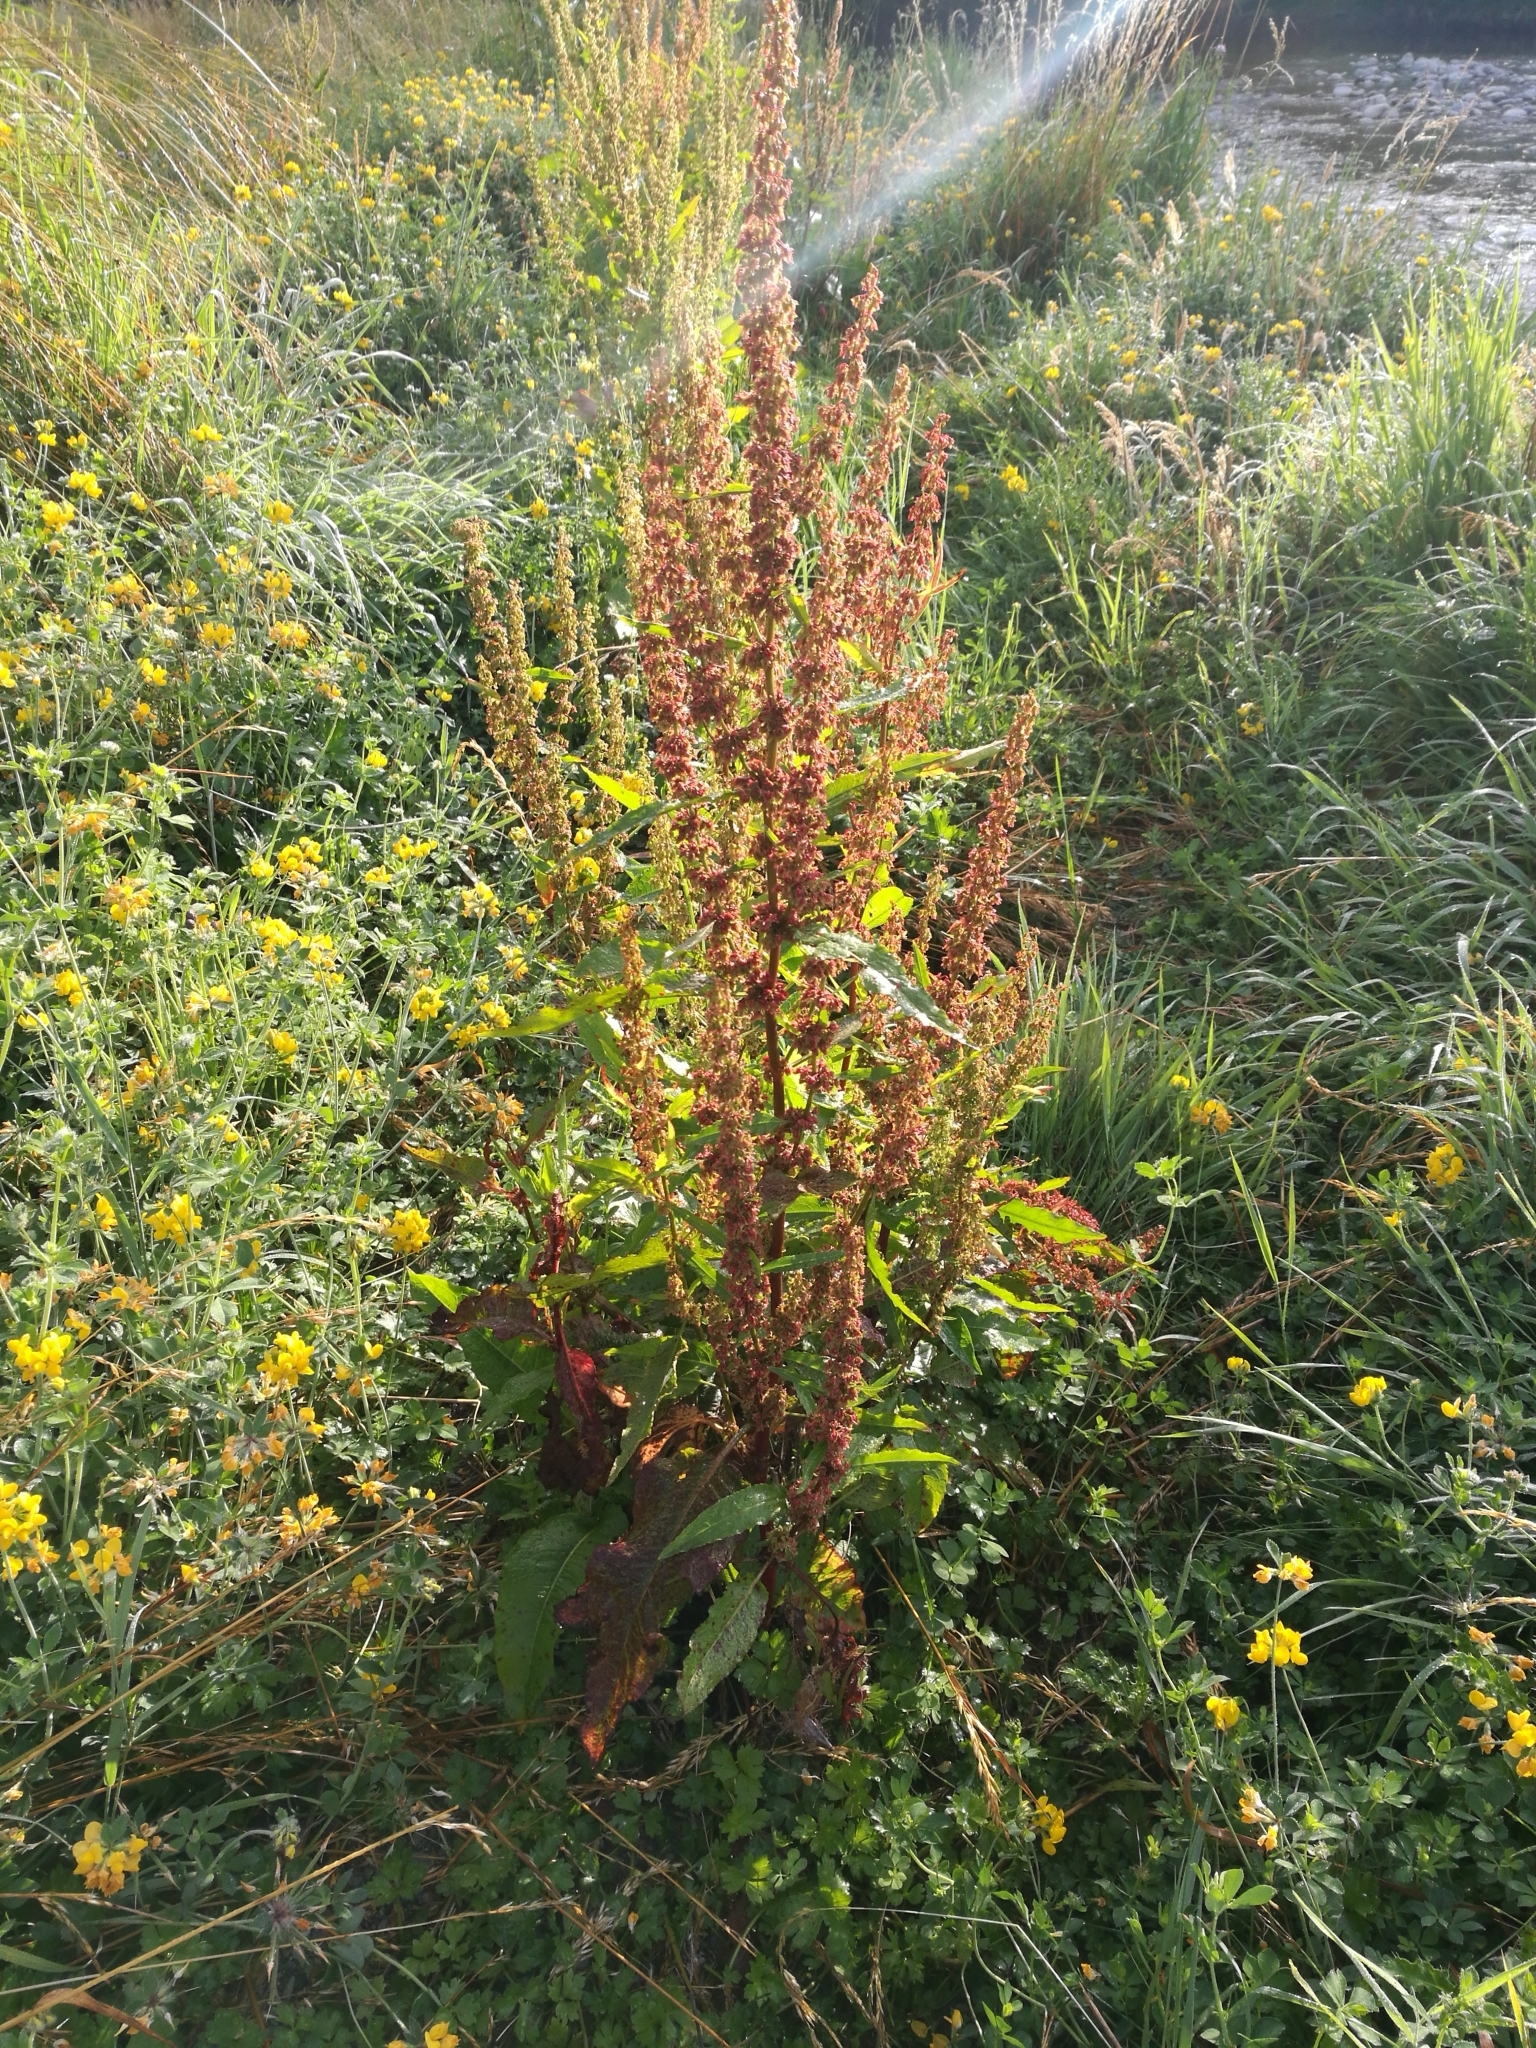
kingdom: Plantae
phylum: Tracheophyta
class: Magnoliopsida
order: Caryophyllales
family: Polygonaceae
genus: Rumex
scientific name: Rumex obtusifolius
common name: Bitter dock
